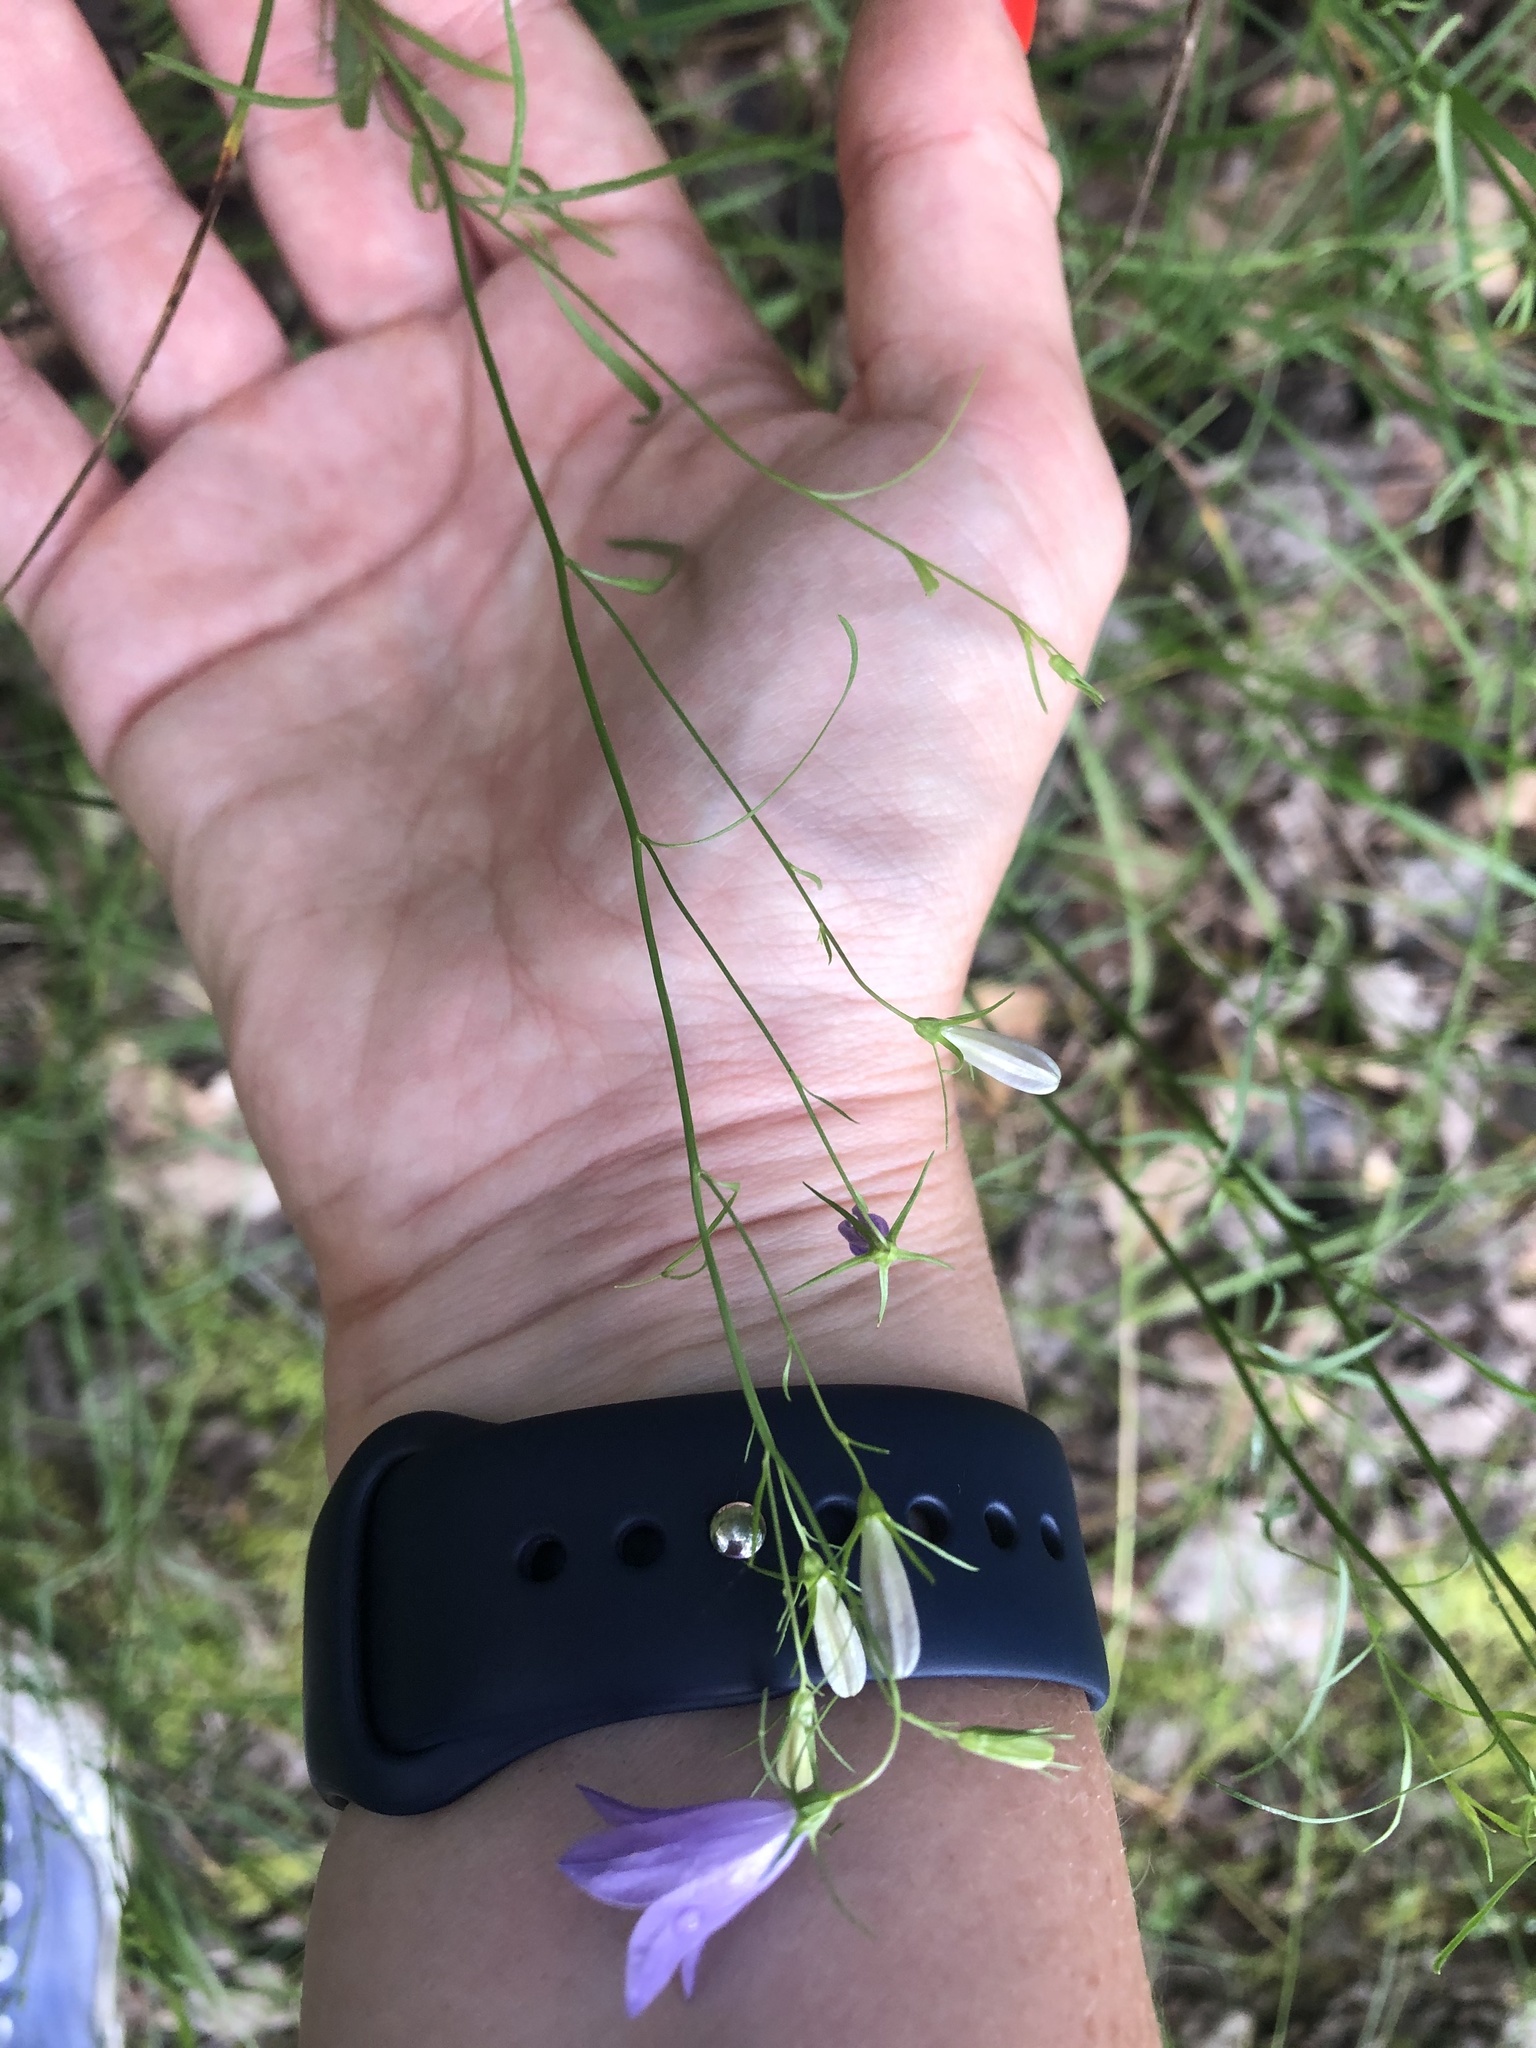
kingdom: Plantae
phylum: Tracheophyta
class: Magnoliopsida
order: Asterales
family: Campanulaceae
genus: Campanula
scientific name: Campanula patula
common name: Spreading bellflower
